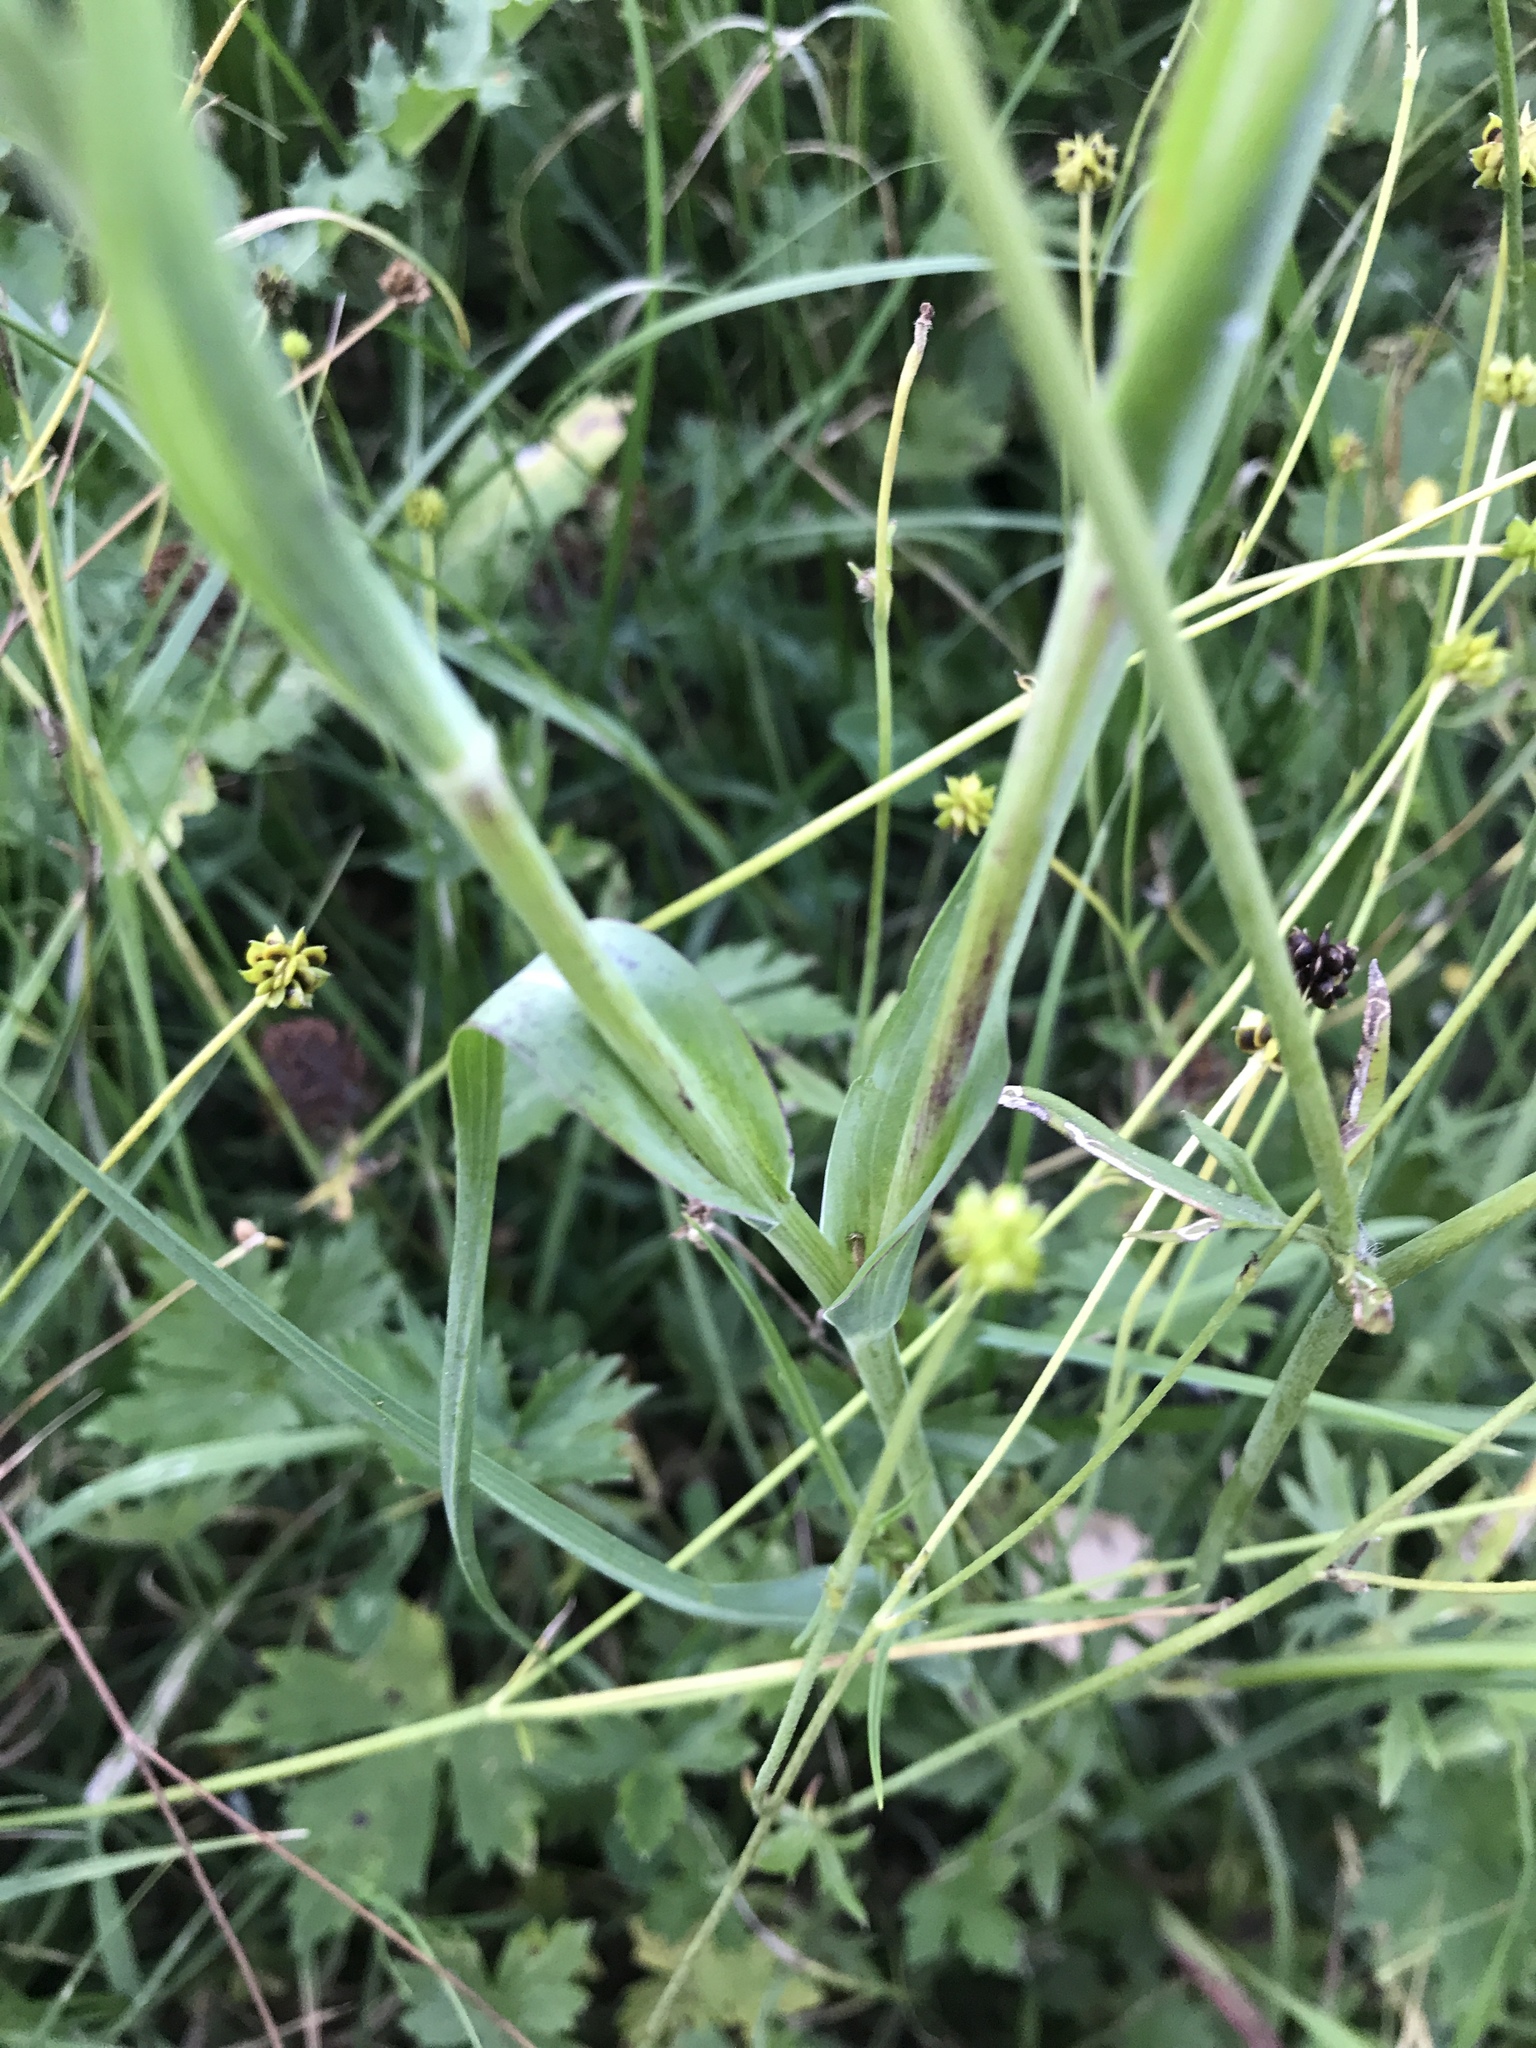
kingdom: Plantae
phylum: Tracheophyta
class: Magnoliopsida
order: Asterales
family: Asteraceae
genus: Tragopogon
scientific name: Tragopogon pratensis
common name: Goat's-beard
